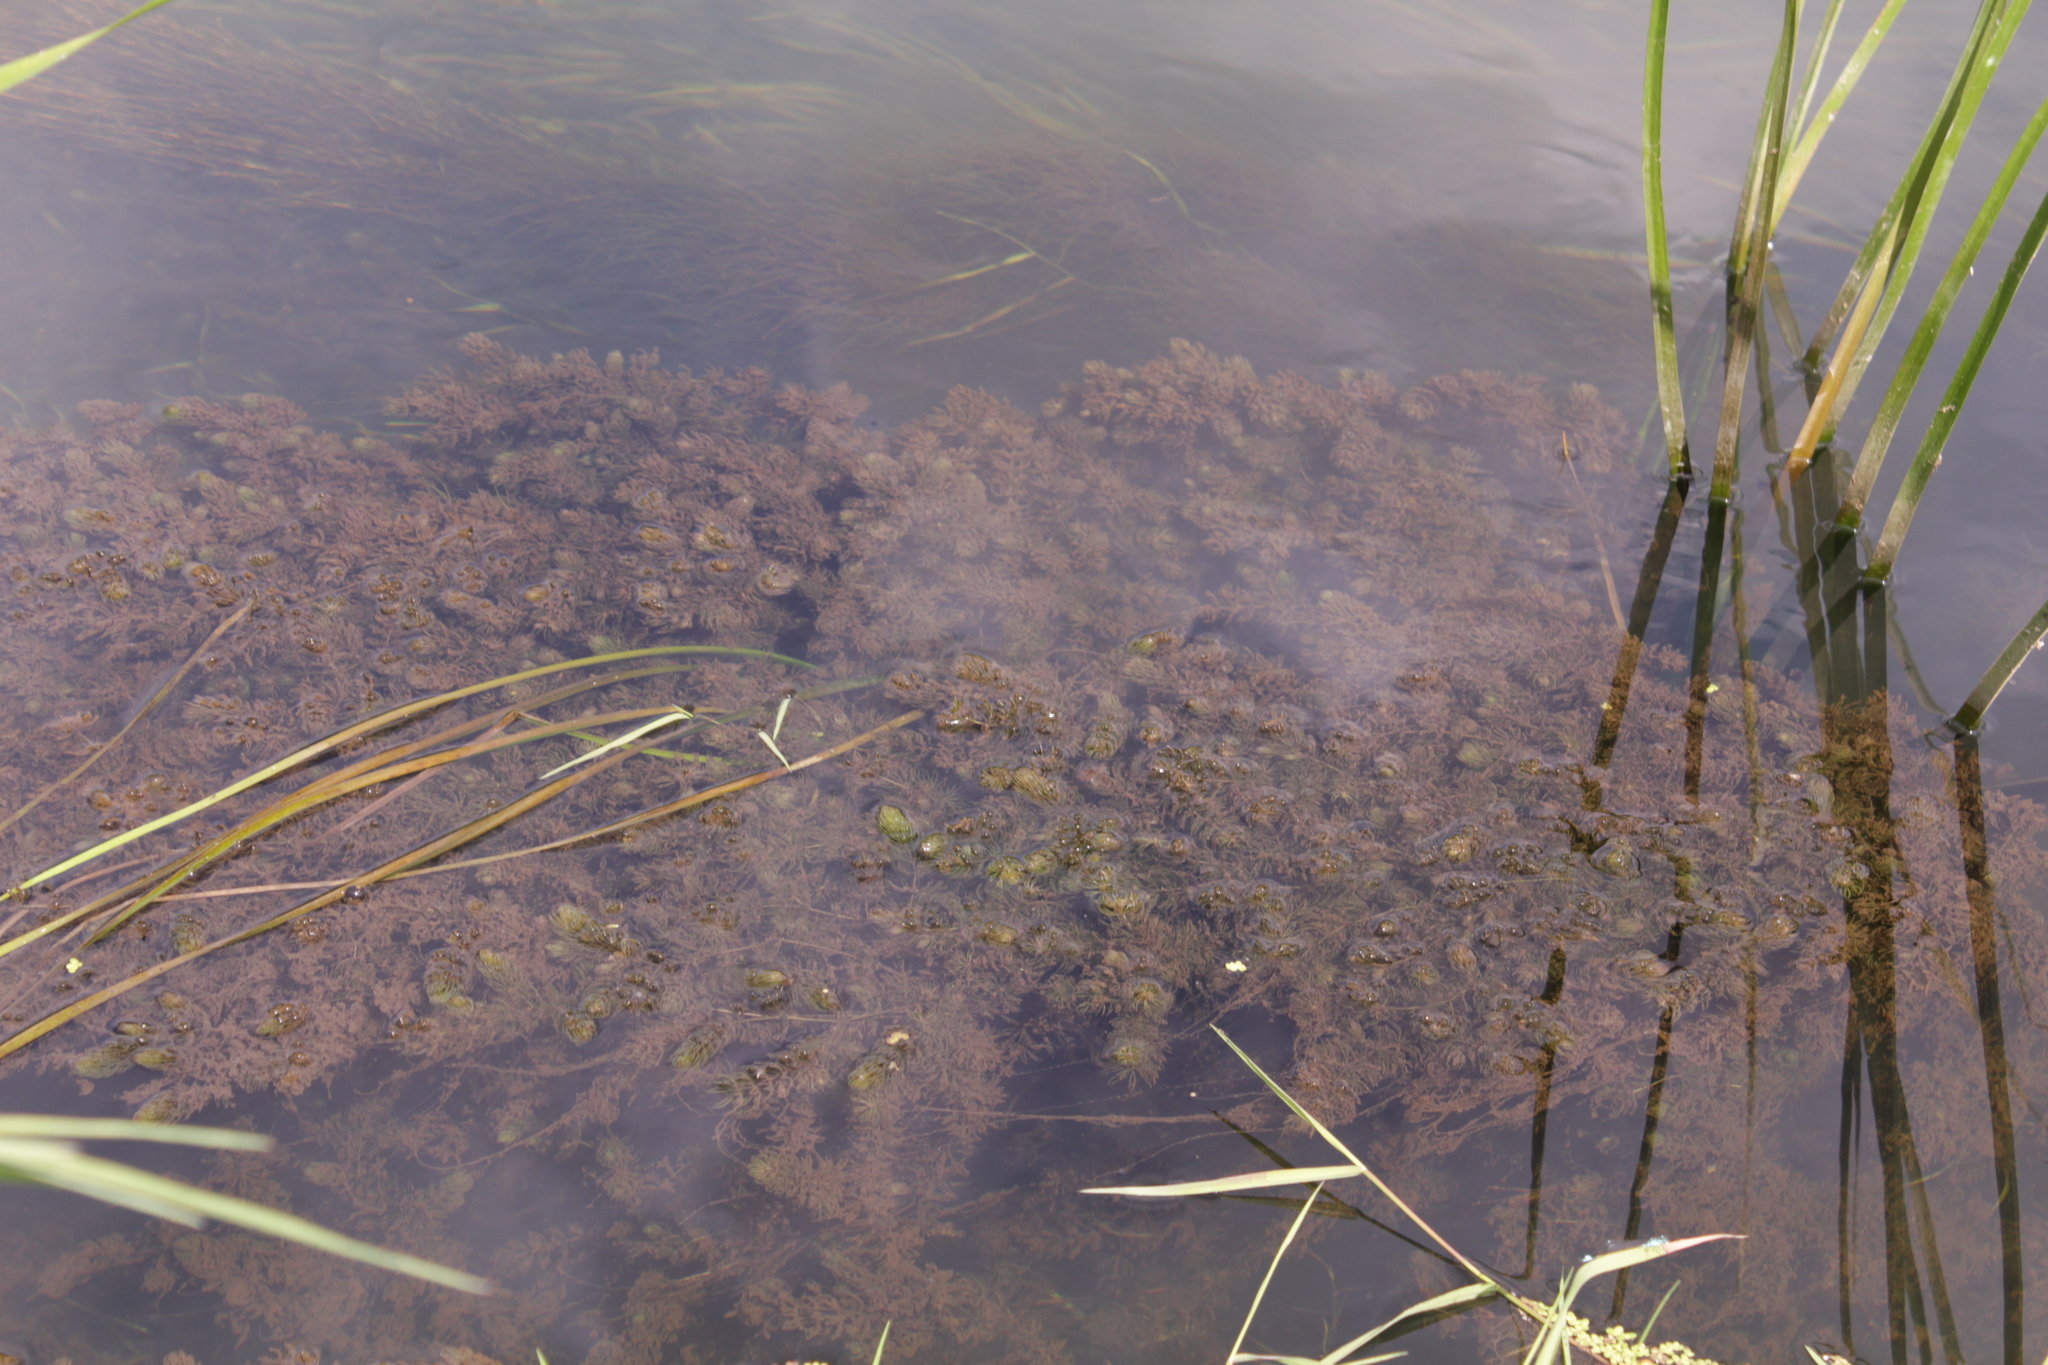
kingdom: Plantae
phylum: Tracheophyta
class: Magnoliopsida
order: Ceratophyllales
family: Ceratophyllaceae
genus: Ceratophyllum
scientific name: Ceratophyllum demersum
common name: Rigid hornwort
